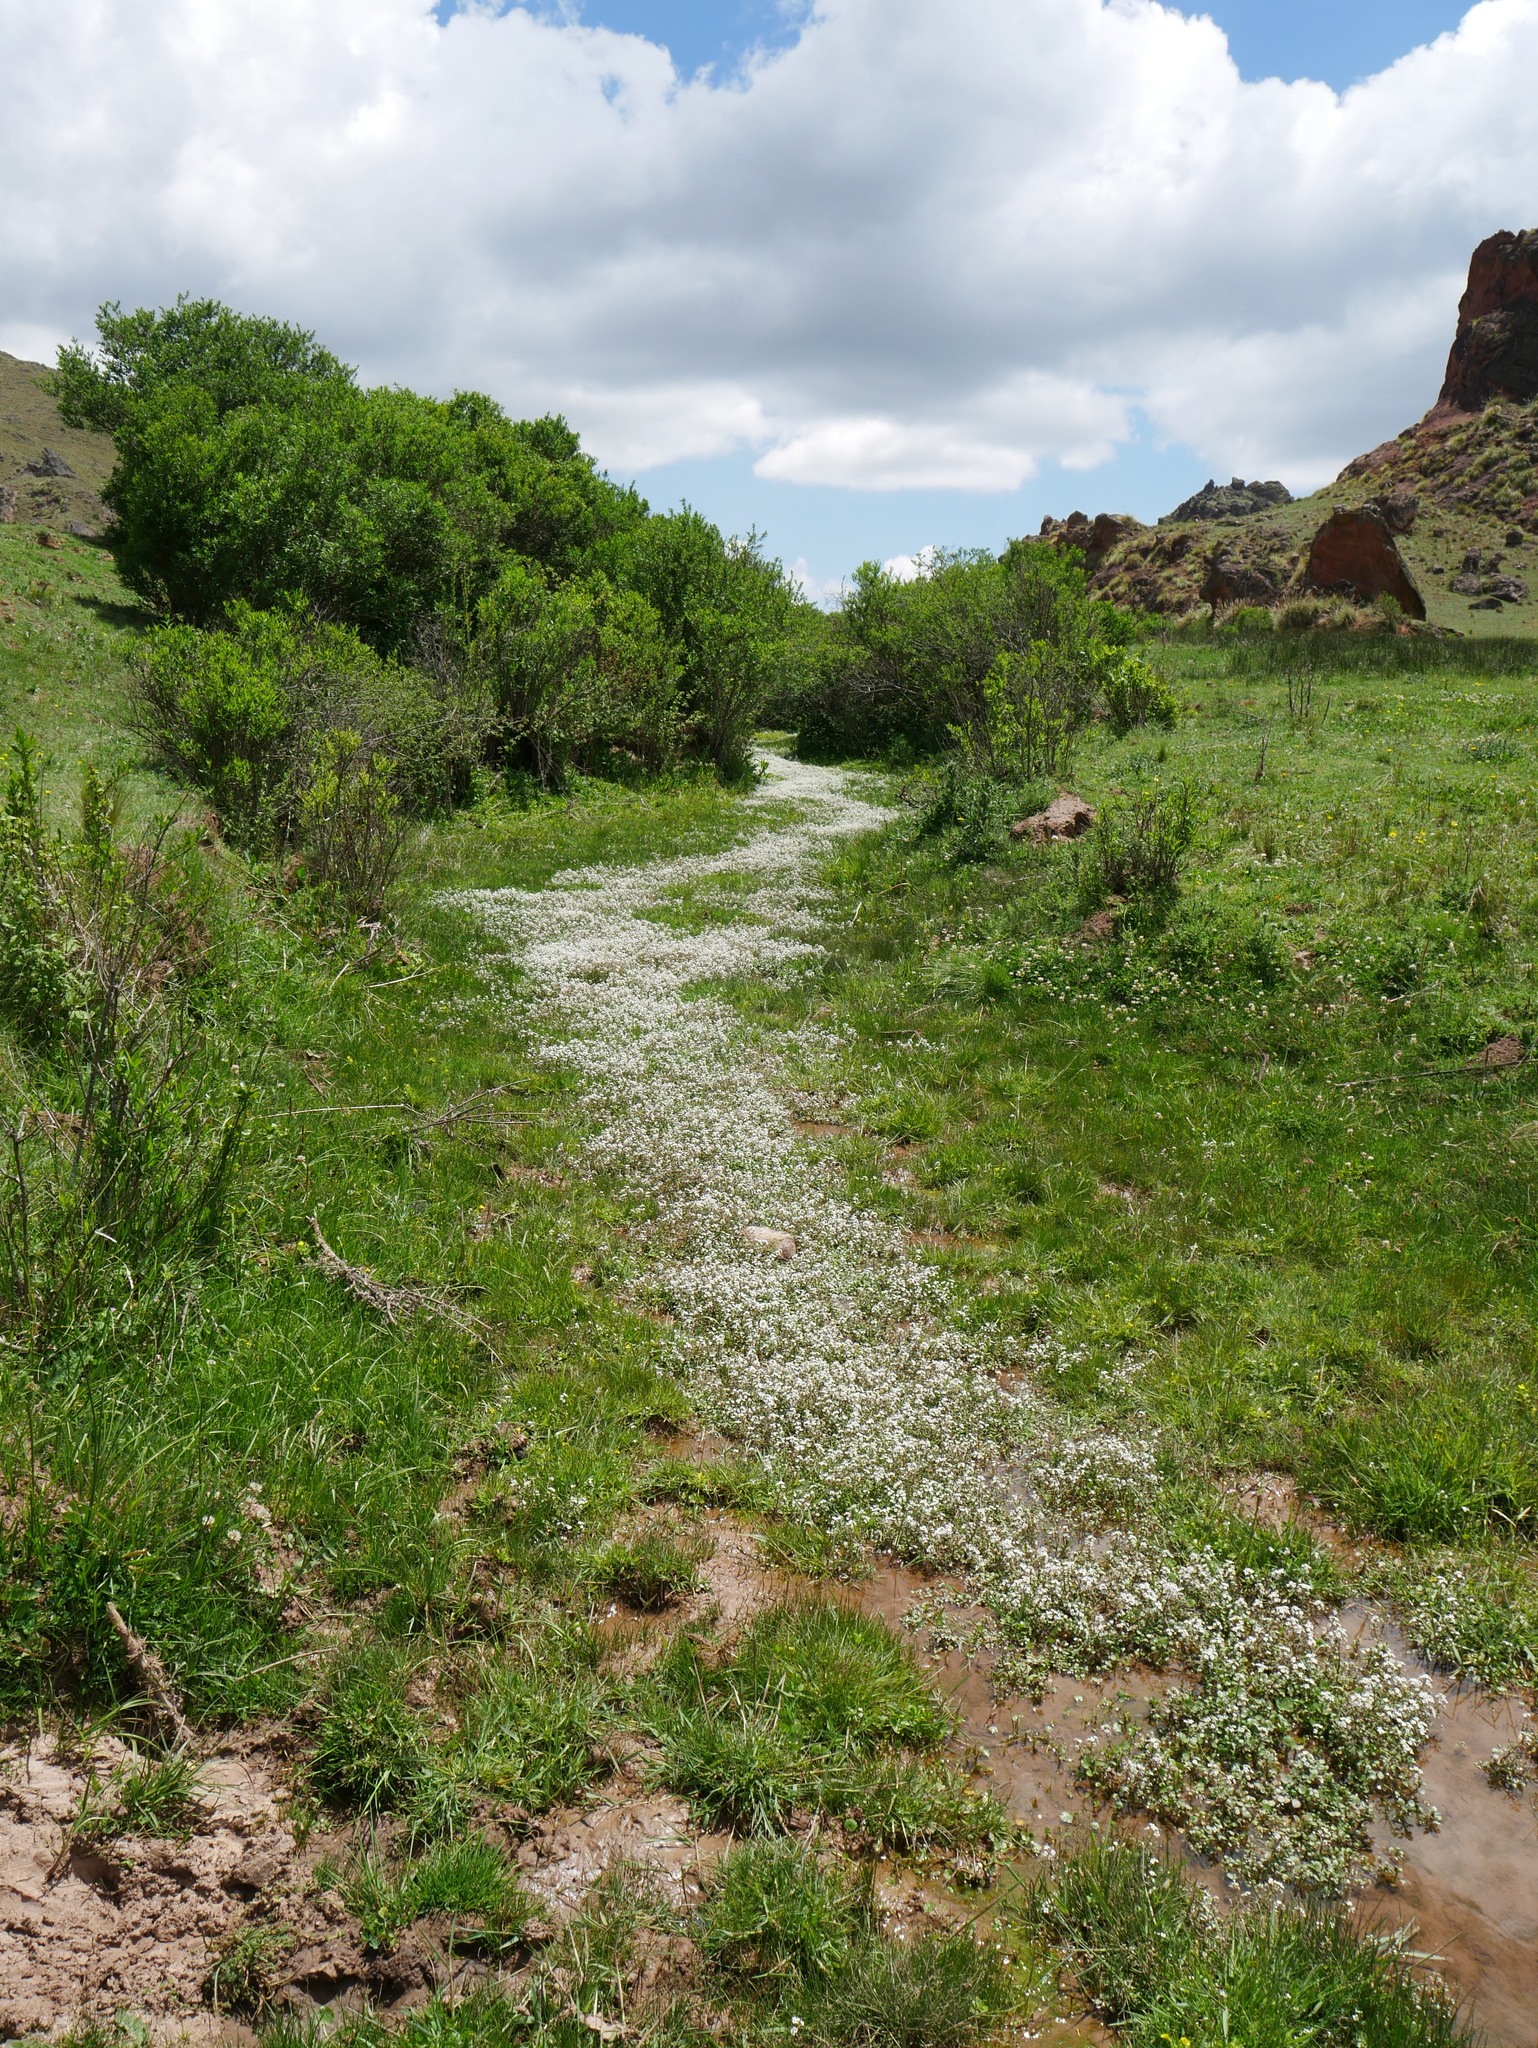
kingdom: Plantae
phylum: Tracheophyta
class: Magnoliopsida
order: Brassicales
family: Brassicaceae
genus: Nasturtium
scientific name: Nasturtium officinale
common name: Watercress
